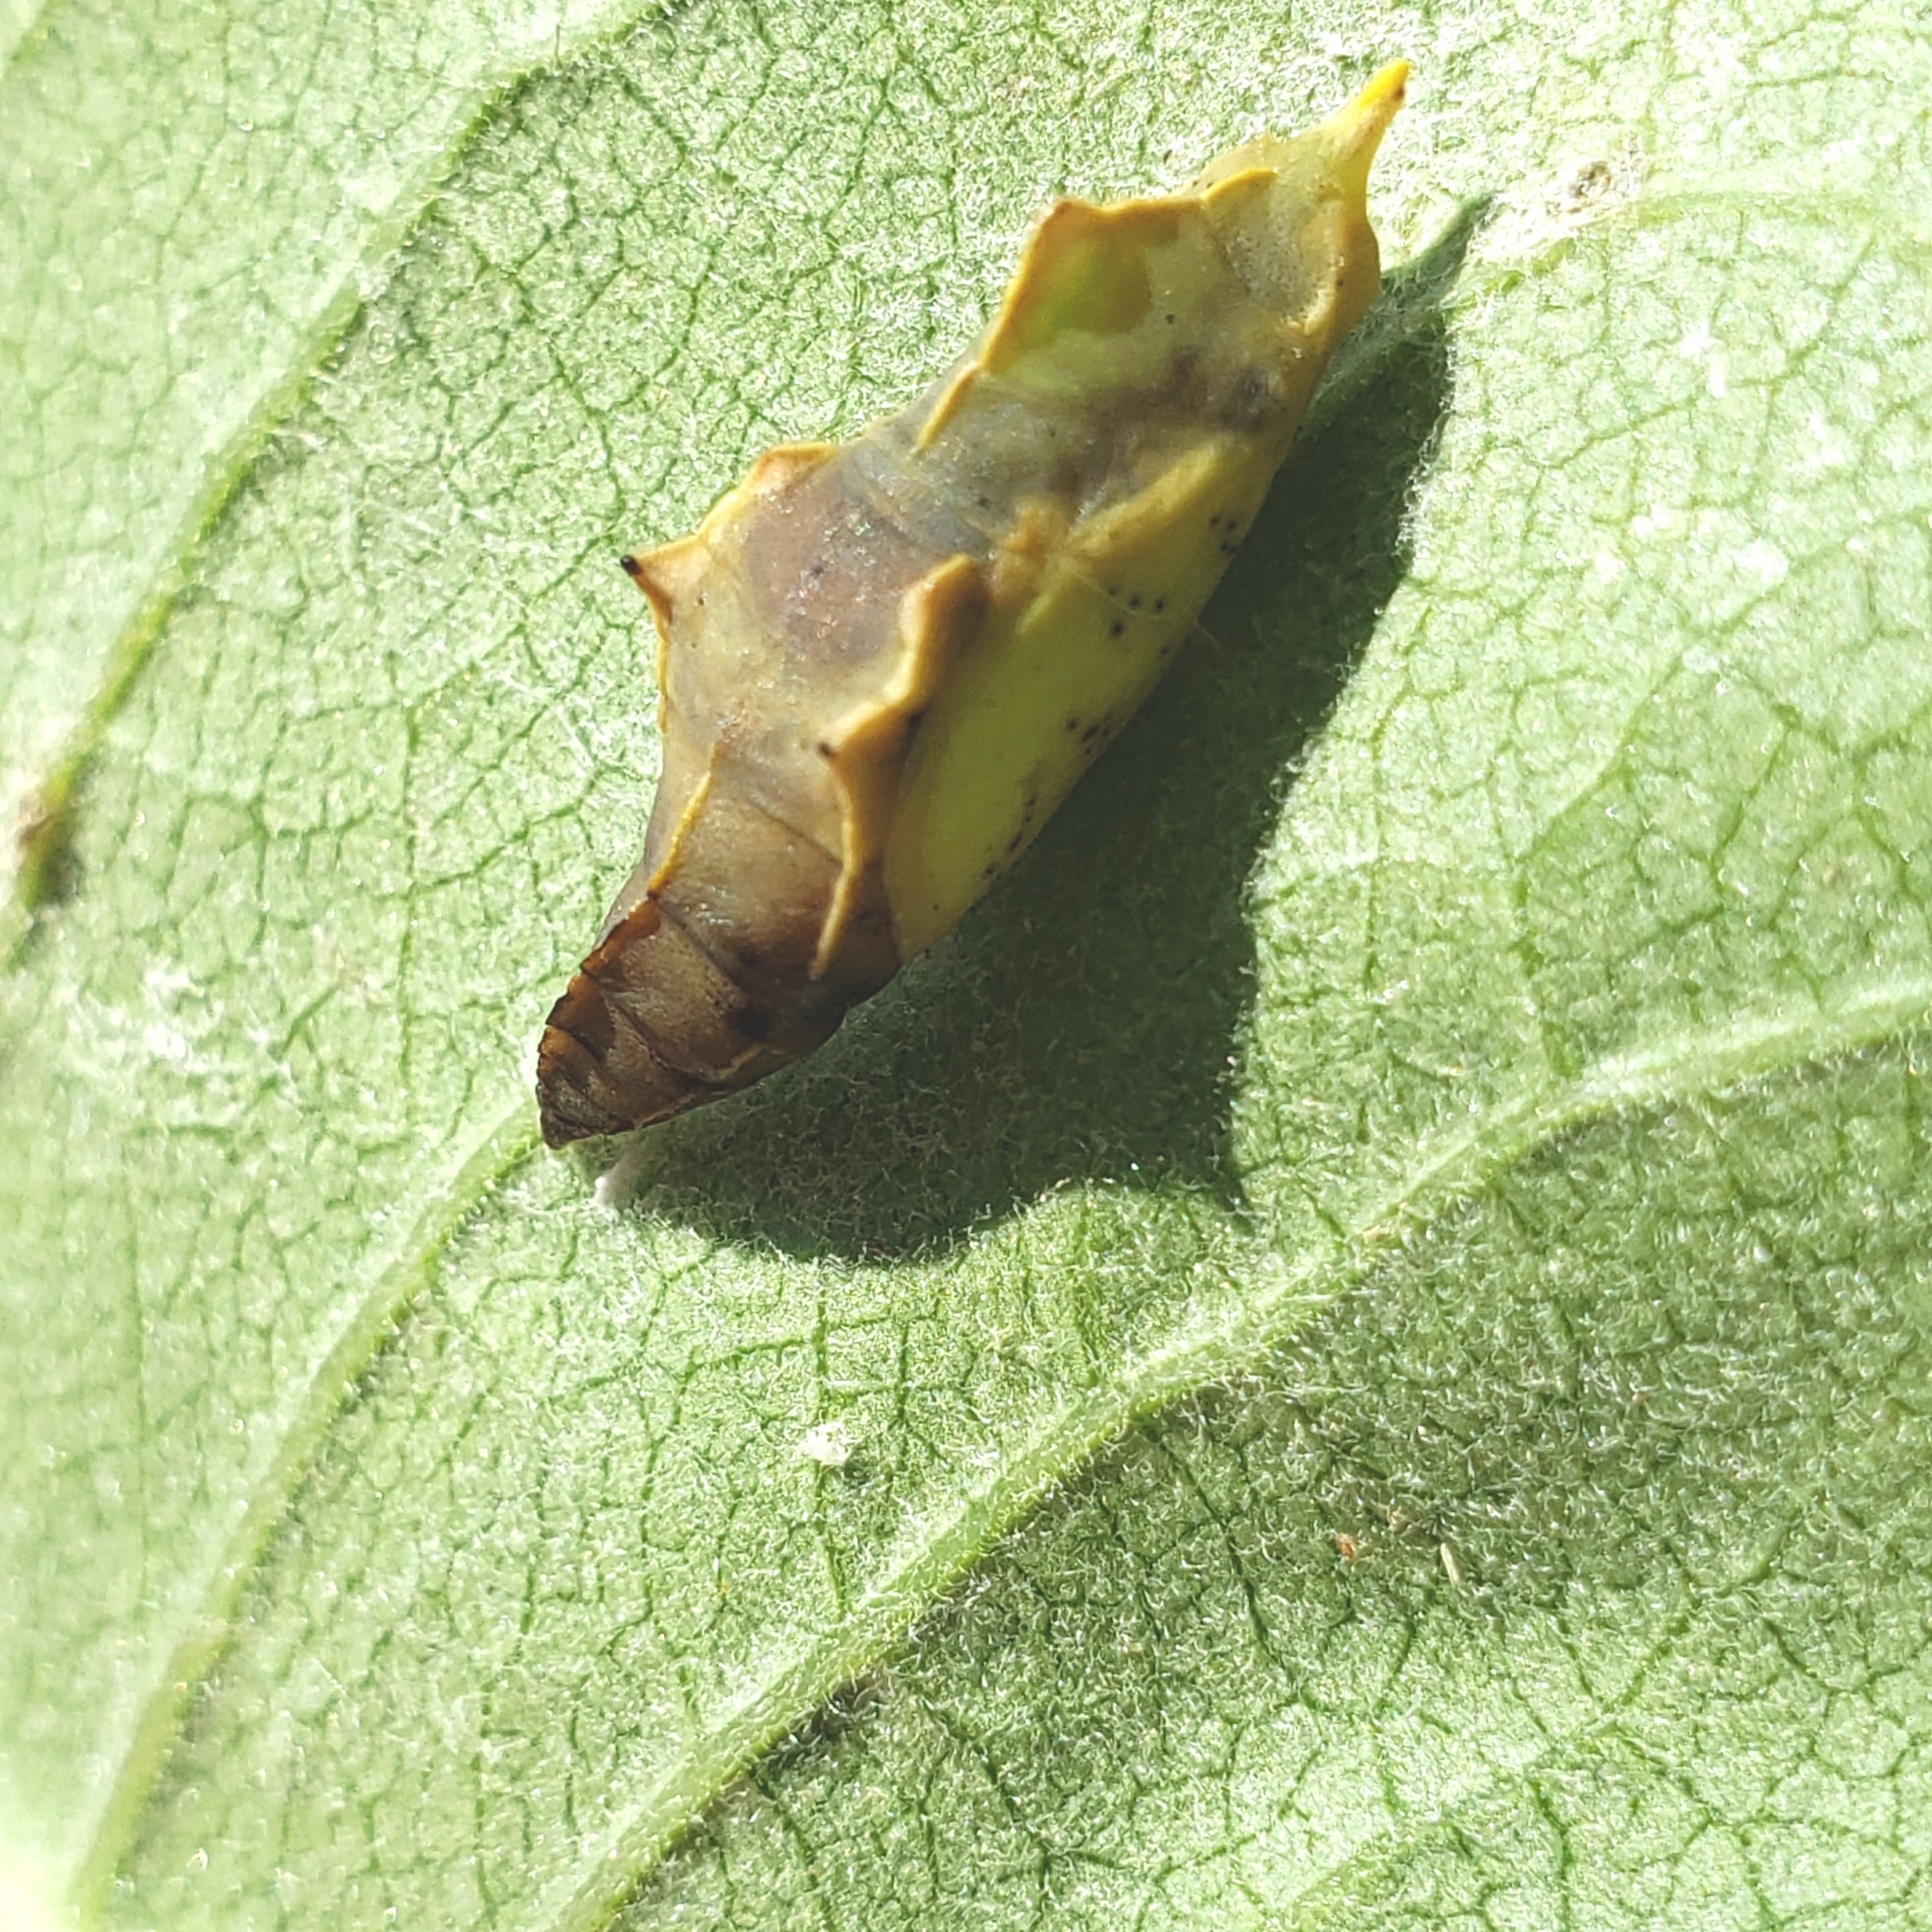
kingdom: Animalia
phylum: Arthropoda
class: Insecta
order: Lepidoptera
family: Pieridae
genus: Pieris
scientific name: Pieris rapae
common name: Small white
